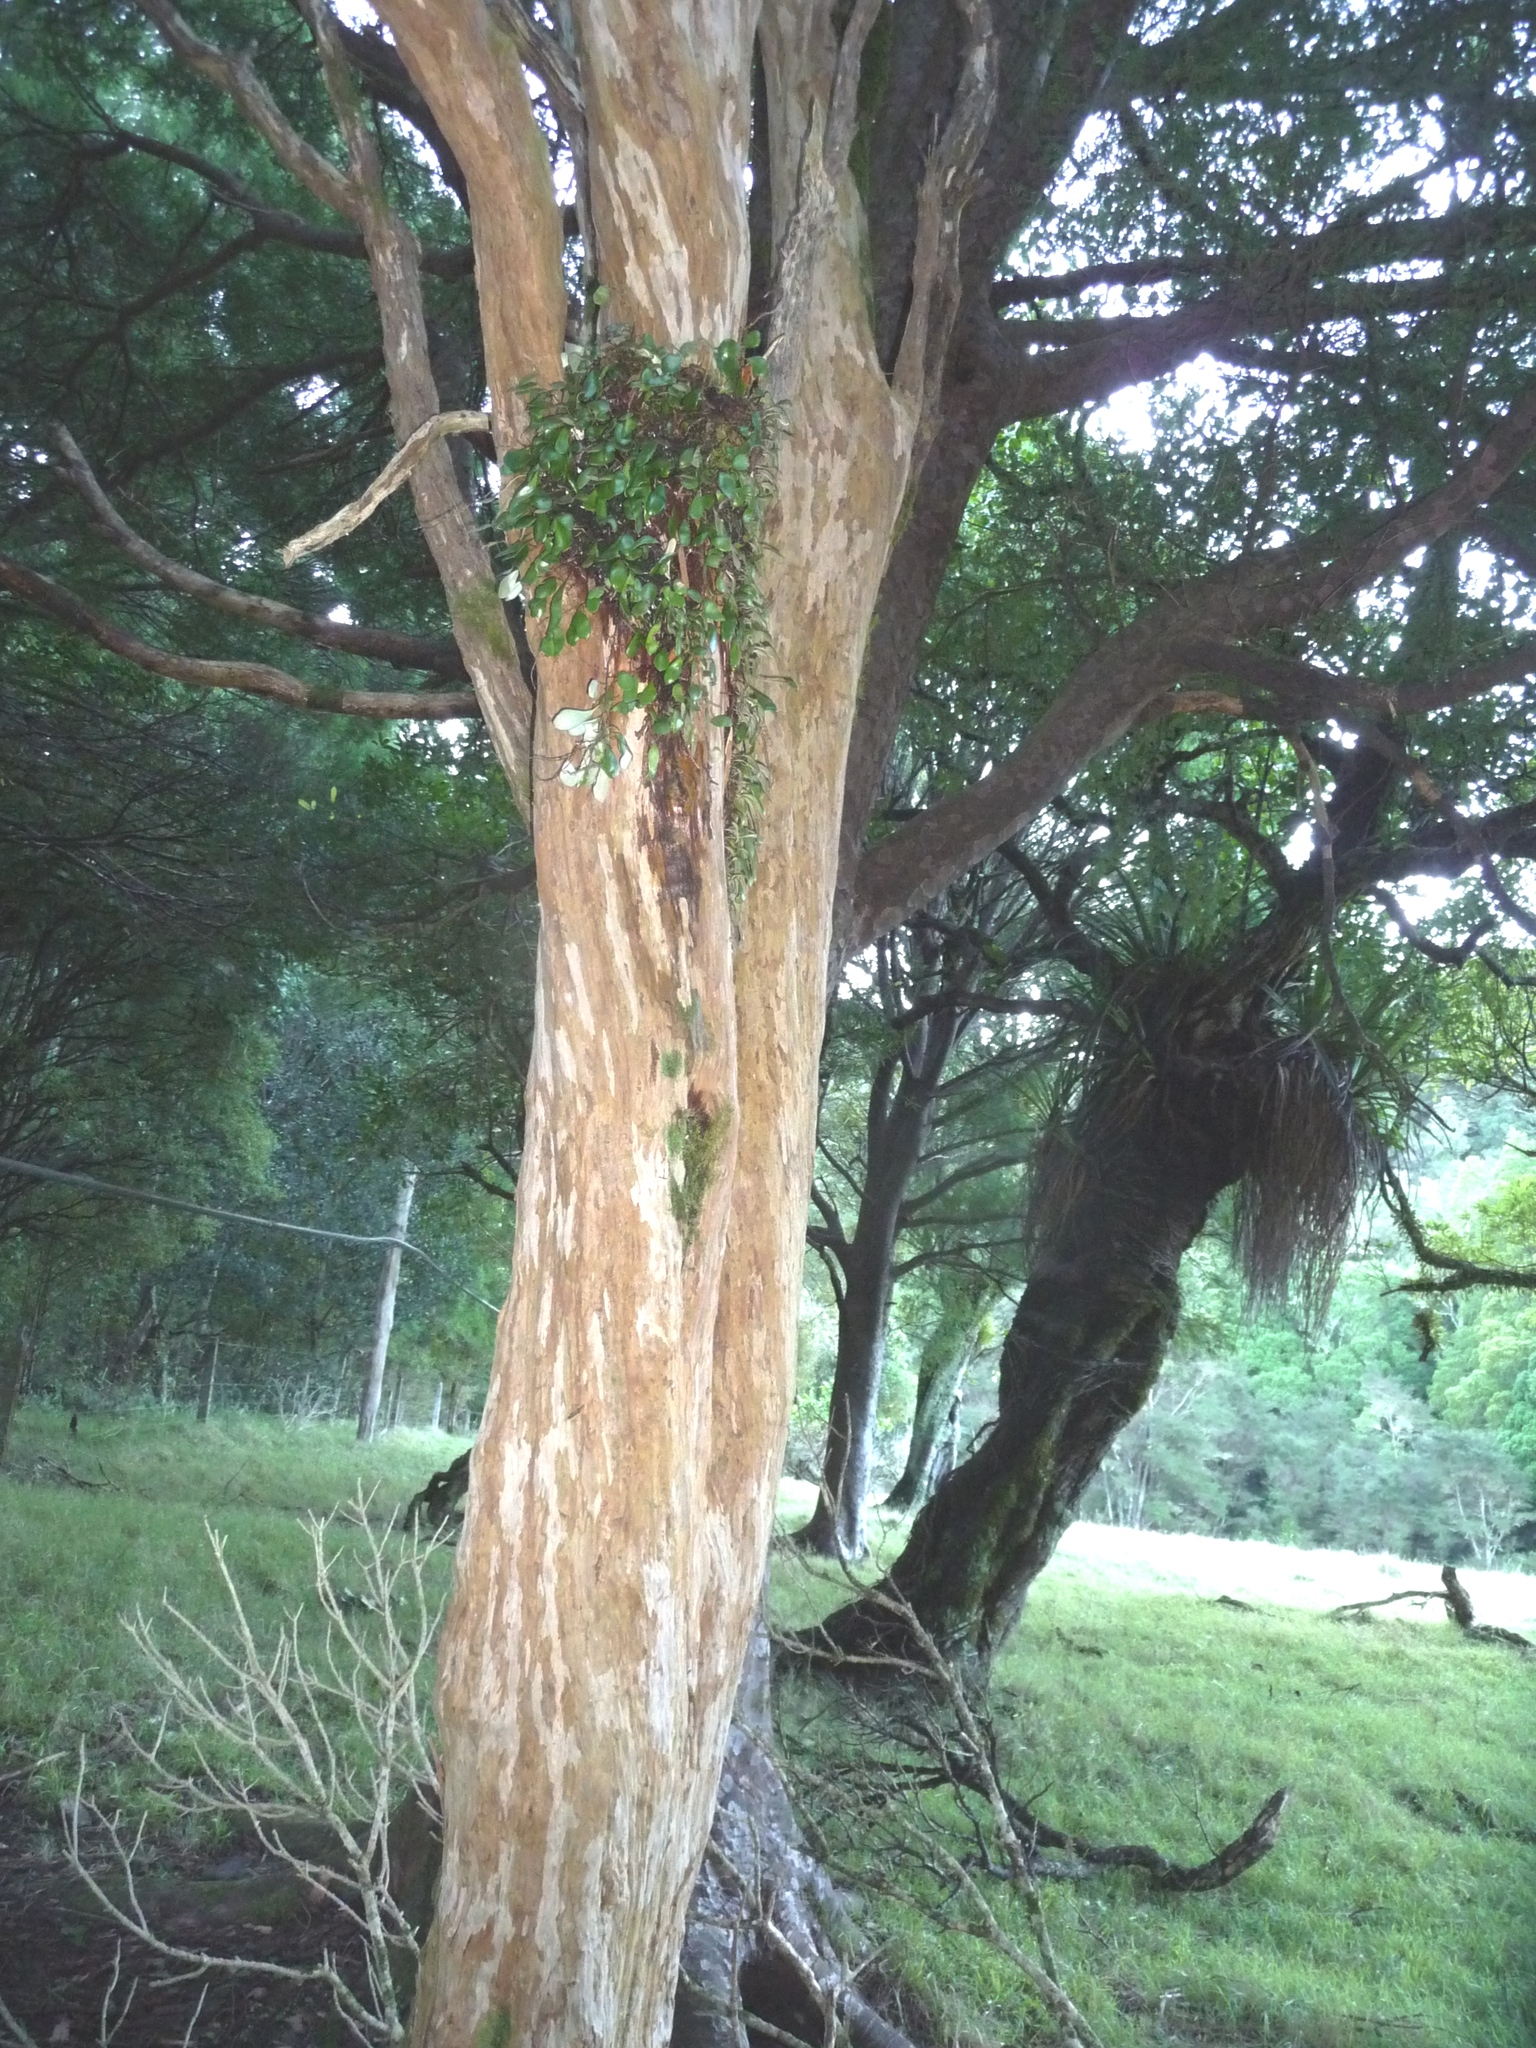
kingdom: Plantae
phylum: Tracheophyta
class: Magnoliopsida
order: Myrtales
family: Myrtaceae
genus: Lophomyrtus
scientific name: Lophomyrtus obcordata
